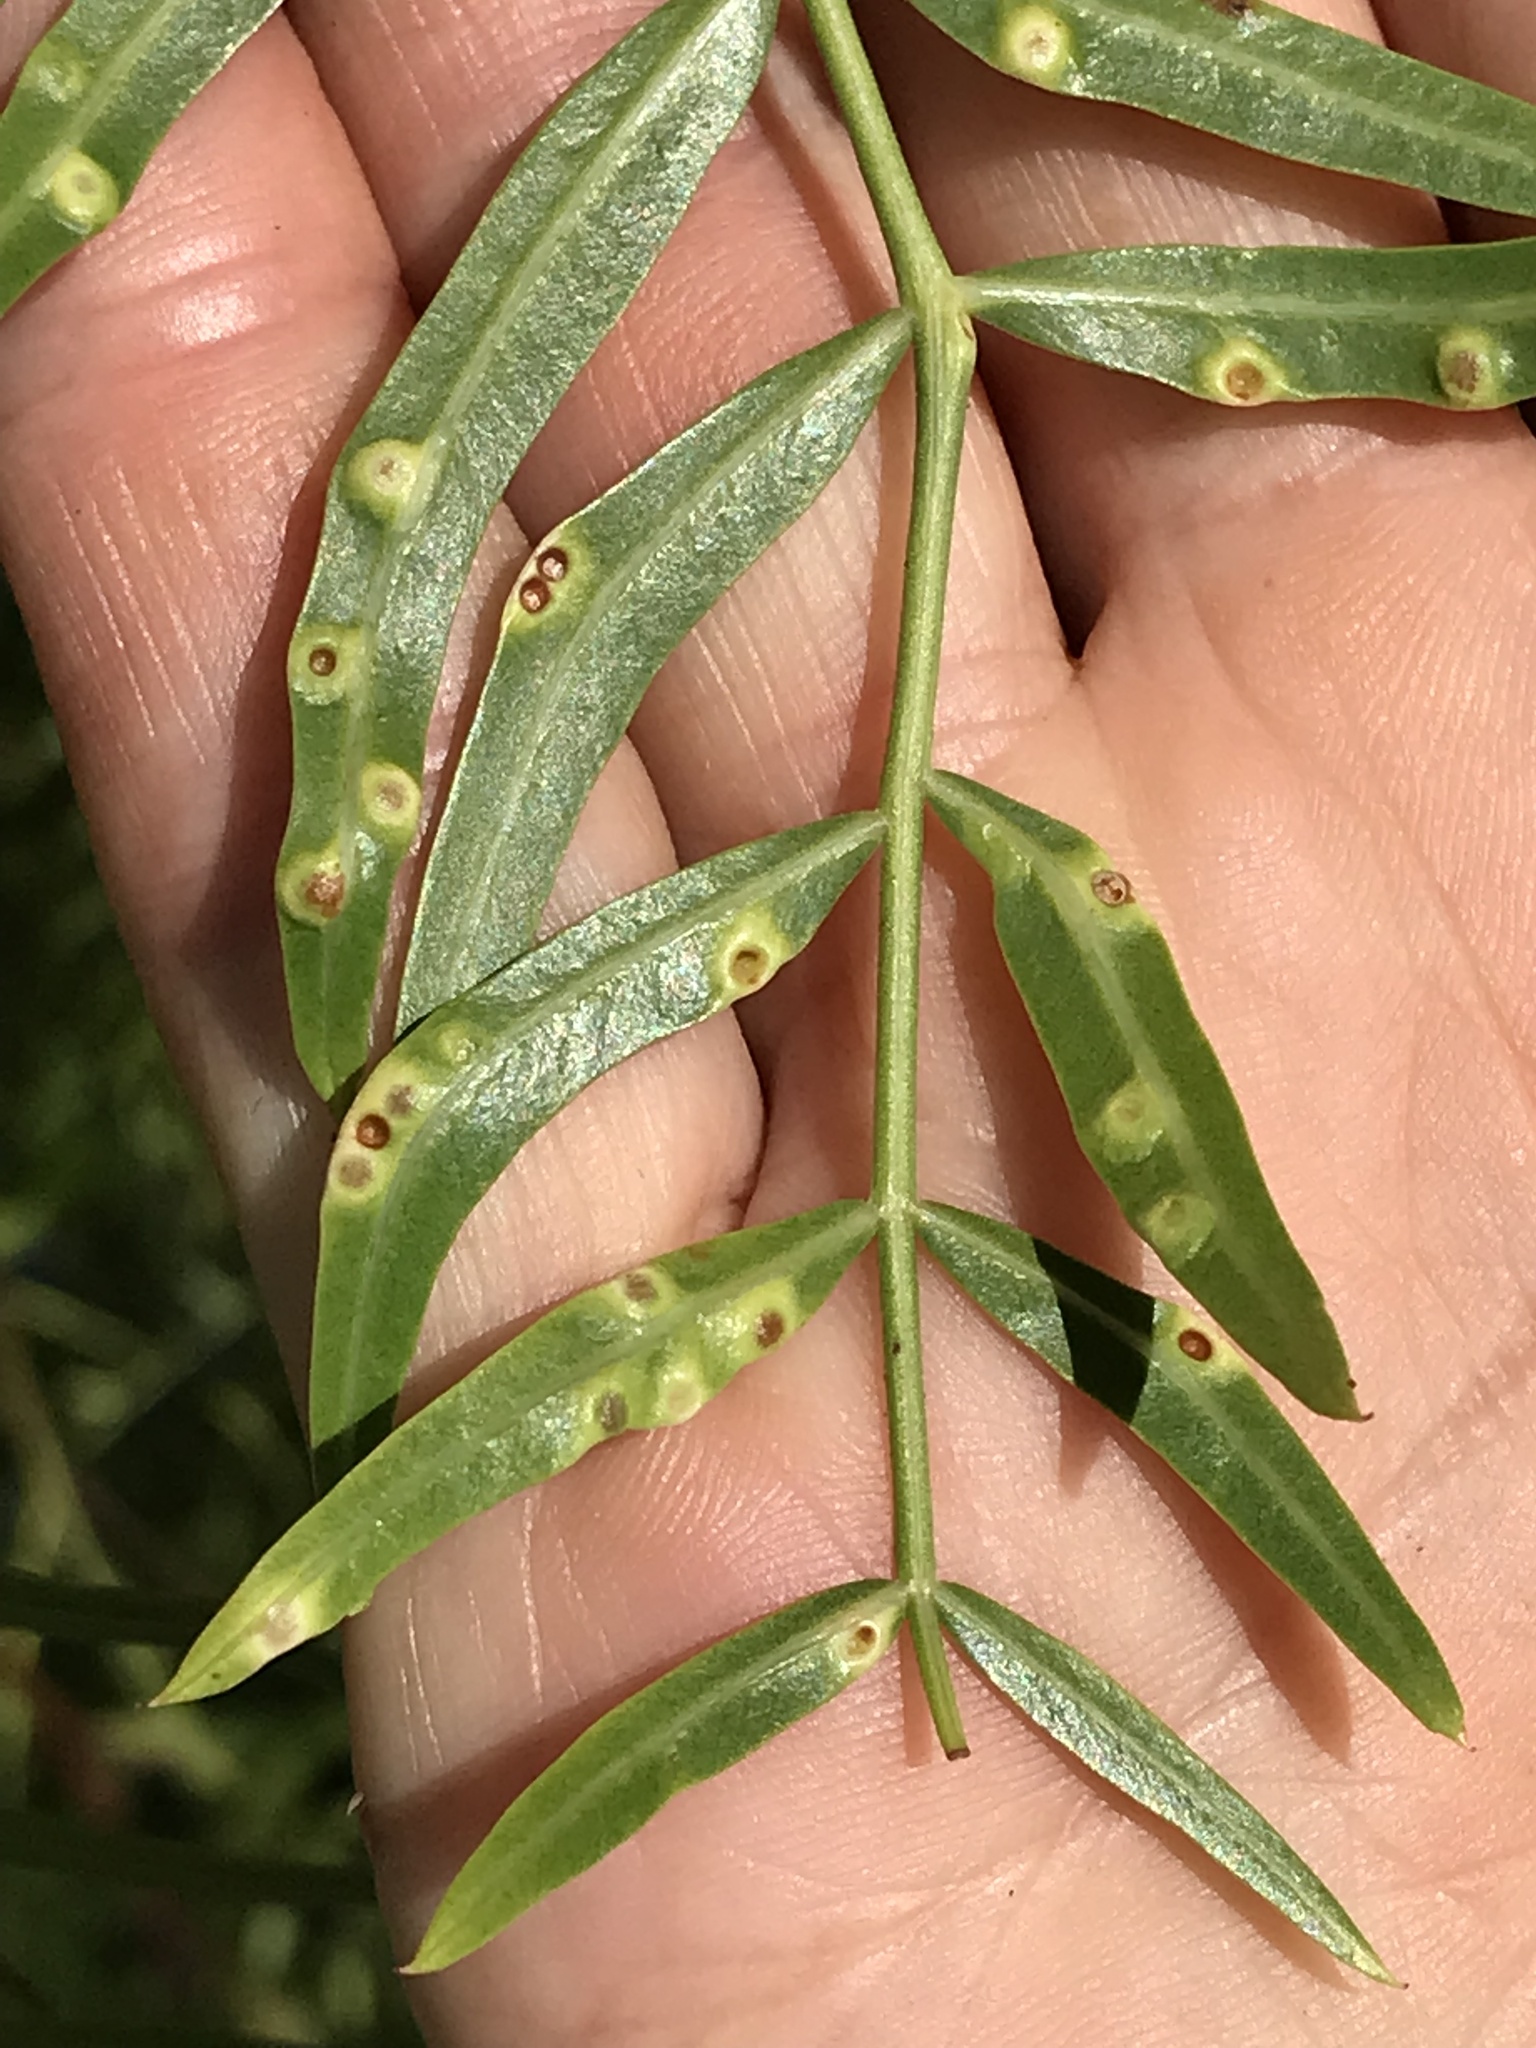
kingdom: Animalia
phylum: Arthropoda
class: Insecta
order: Hemiptera
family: Calophyidae
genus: Calophya
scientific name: Calophya schini
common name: Pepper tree psyllid
